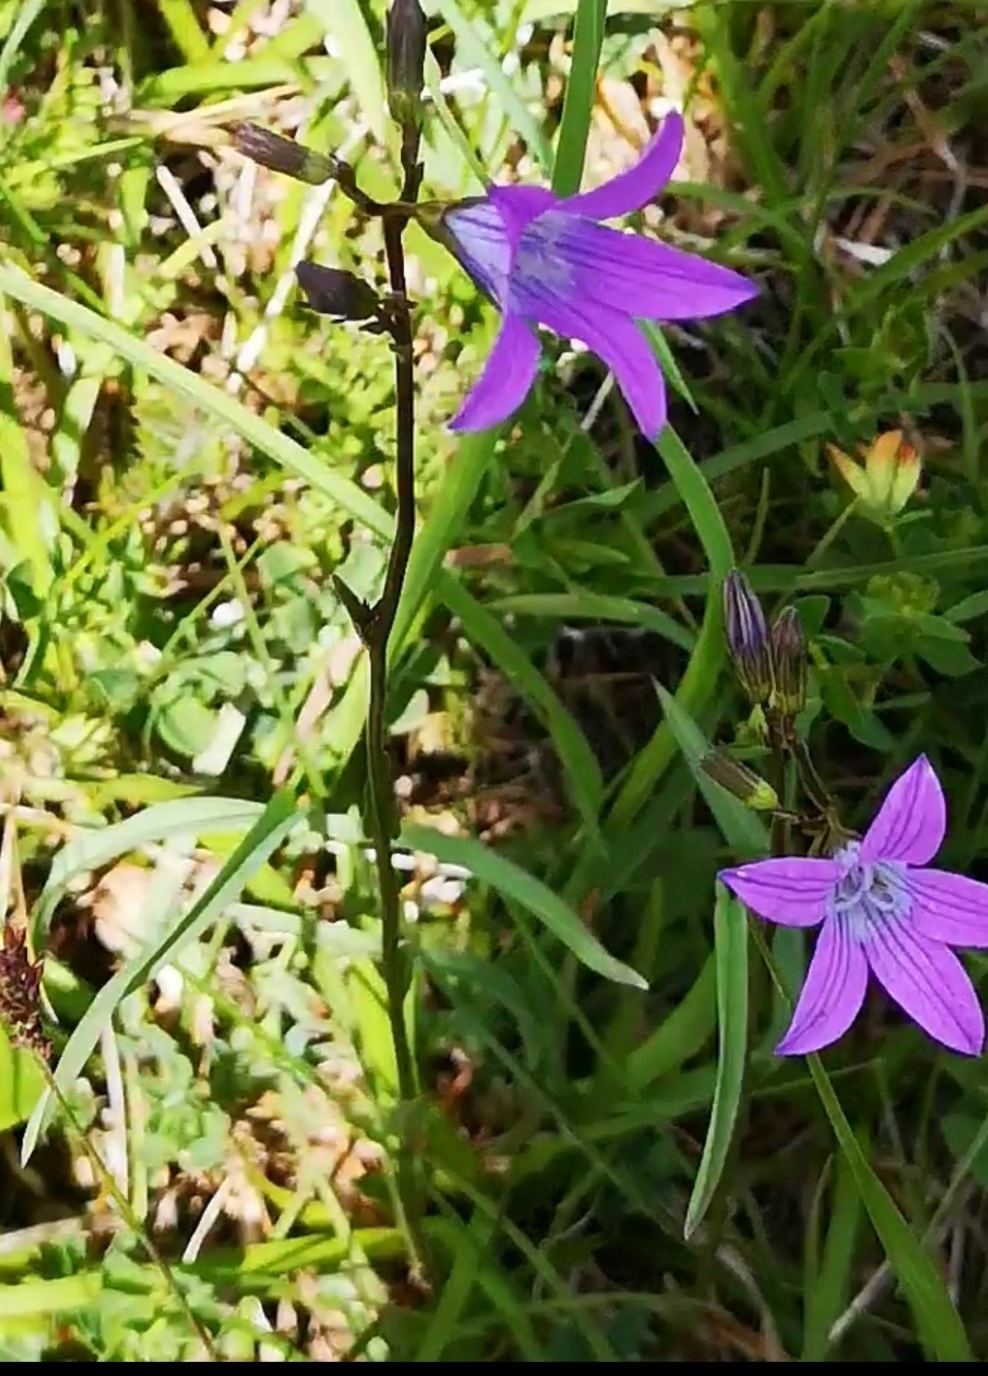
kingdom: Plantae
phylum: Tracheophyta
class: Magnoliopsida
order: Asterales
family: Campanulaceae
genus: Campanula
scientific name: Campanula patula
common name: Spreading bellflower
